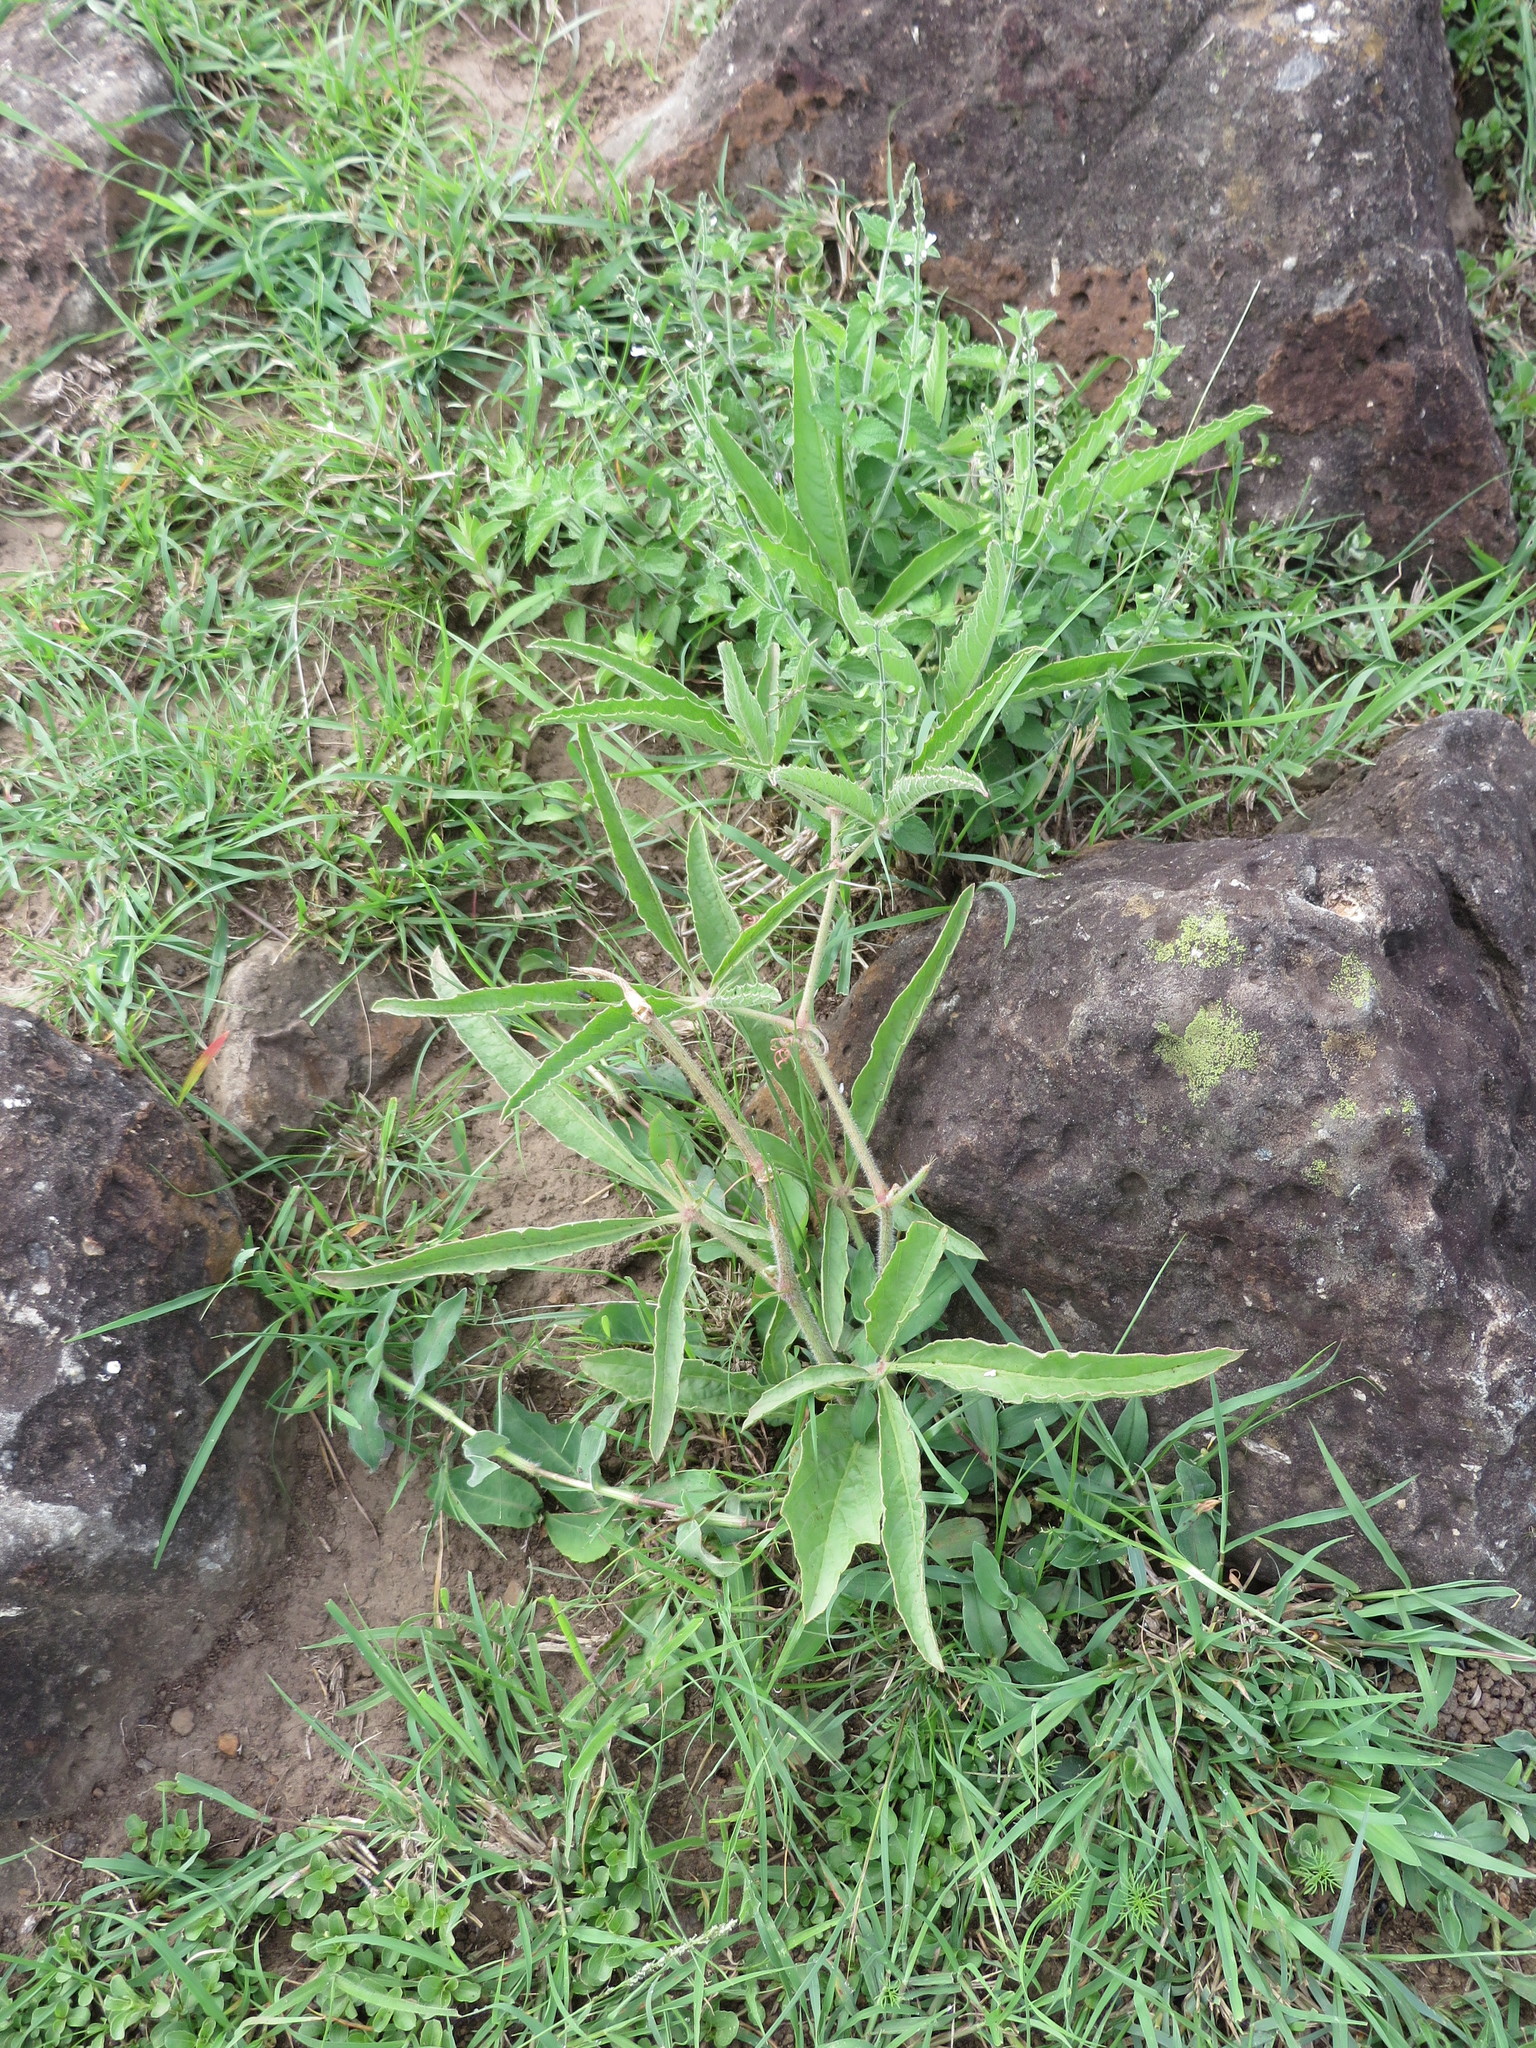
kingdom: Plantae
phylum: Tracheophyta
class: Magnoliopsida
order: Vitales
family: Vitaceae
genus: Cyphostemma
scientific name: Cyphostemma serpens
